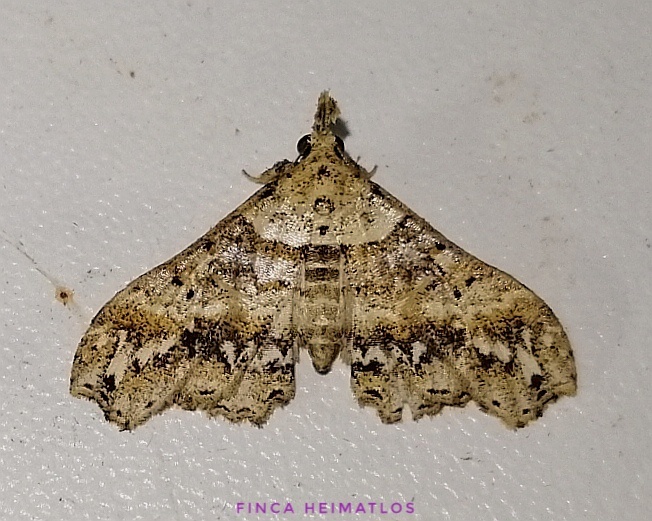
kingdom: Animalia
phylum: Arthropoda
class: Insecta
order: Lepidoptera
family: Erebidae
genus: Lascoria
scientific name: Lascoria nivea
